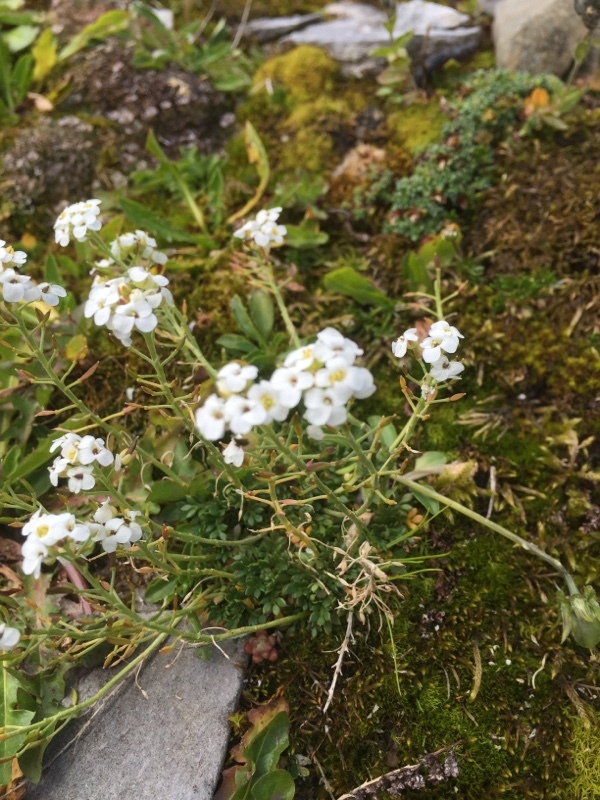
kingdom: Plantae
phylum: Tracheophyta
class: Magnoliopsida
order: Brassicales
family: Brassicaceae
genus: Hornungia
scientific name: Hornungia alpina
